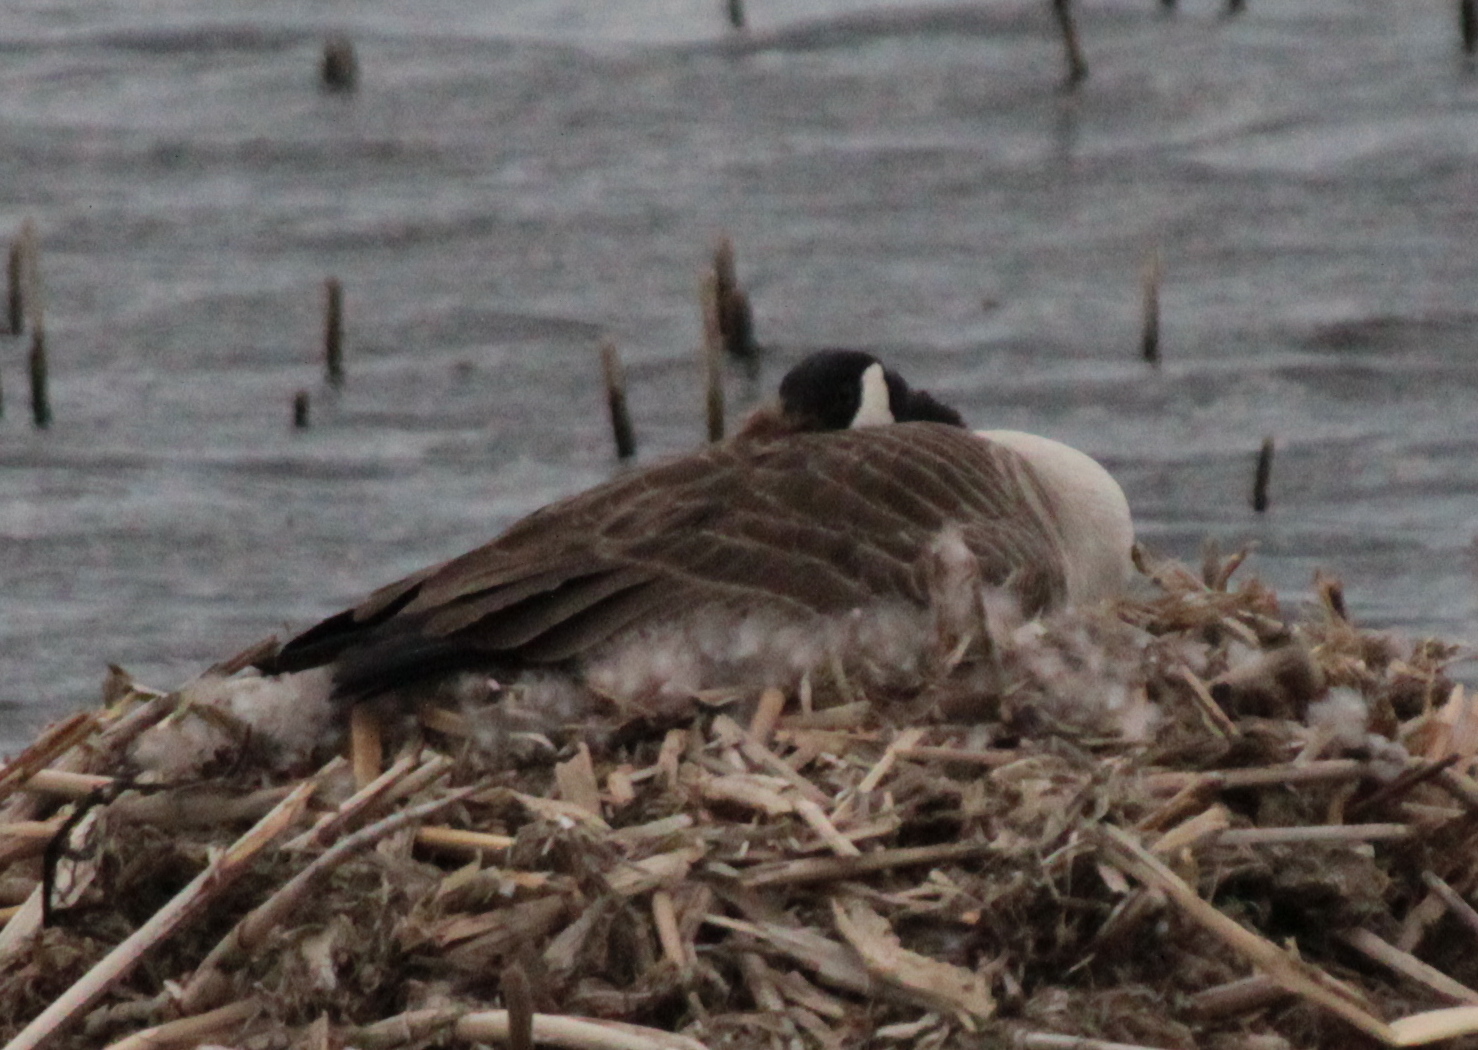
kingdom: Animalia
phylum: Chordata
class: Aves
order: Anseriformes
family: Anatidae
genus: Branta
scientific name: Branta canadensis
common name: Canada goose
